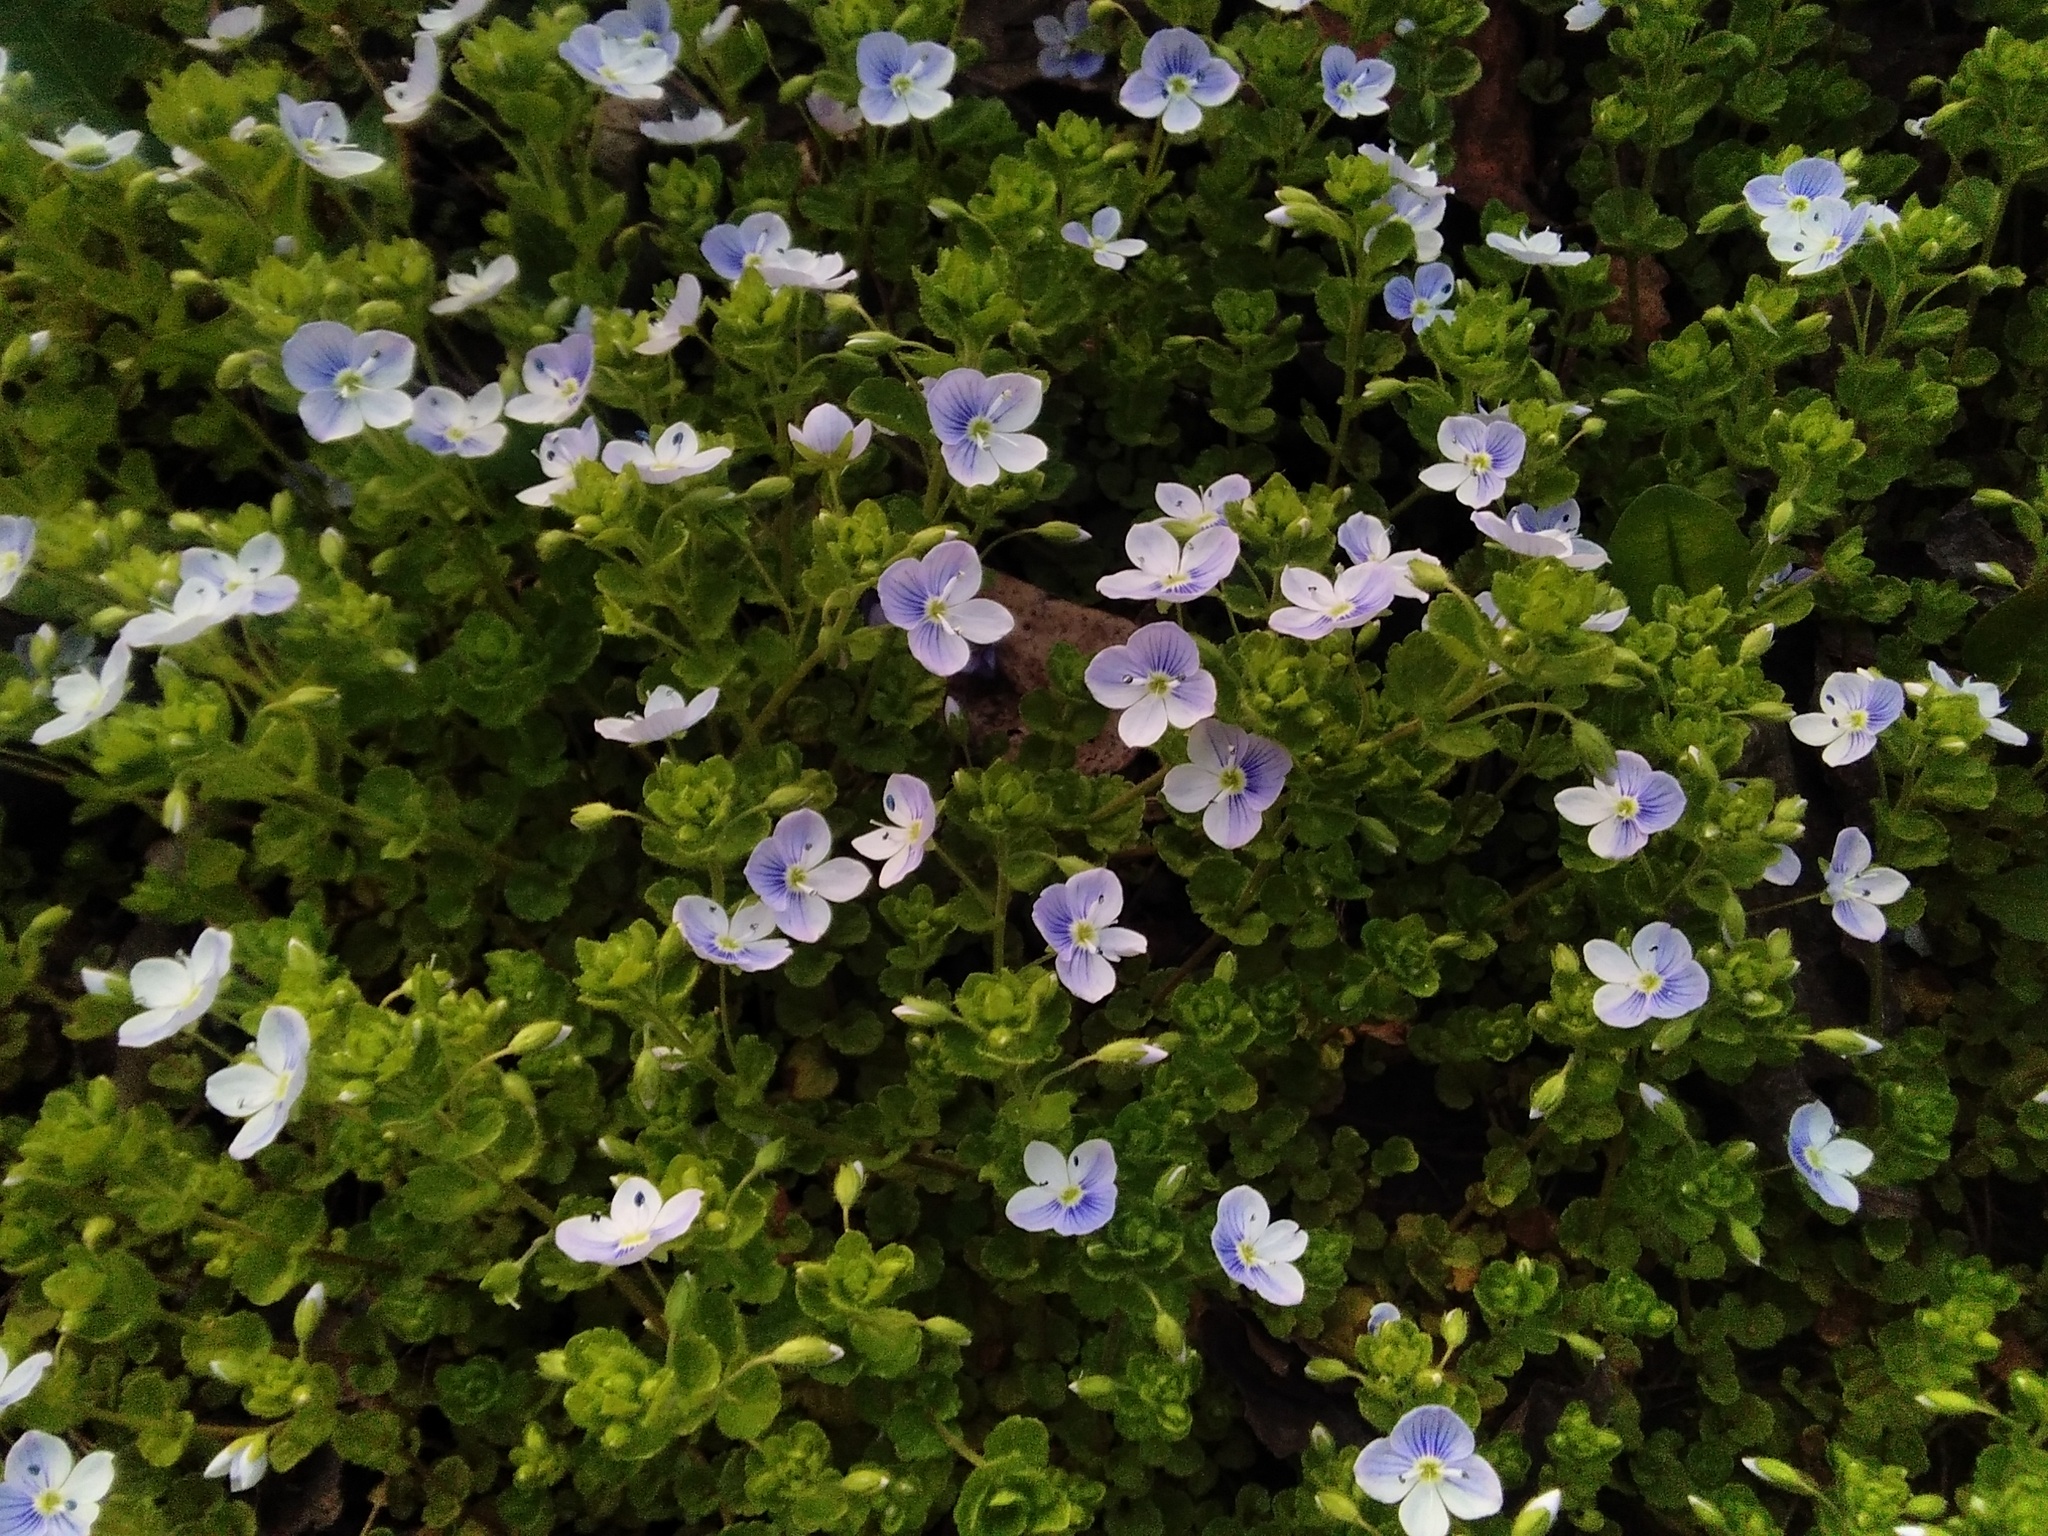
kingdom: Plantae
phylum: Tracheophyta
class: Magnoliopsida
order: Lamiales
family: Plantaginaceae
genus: Veronica
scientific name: Veronica filiformis
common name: Slender speedwell
